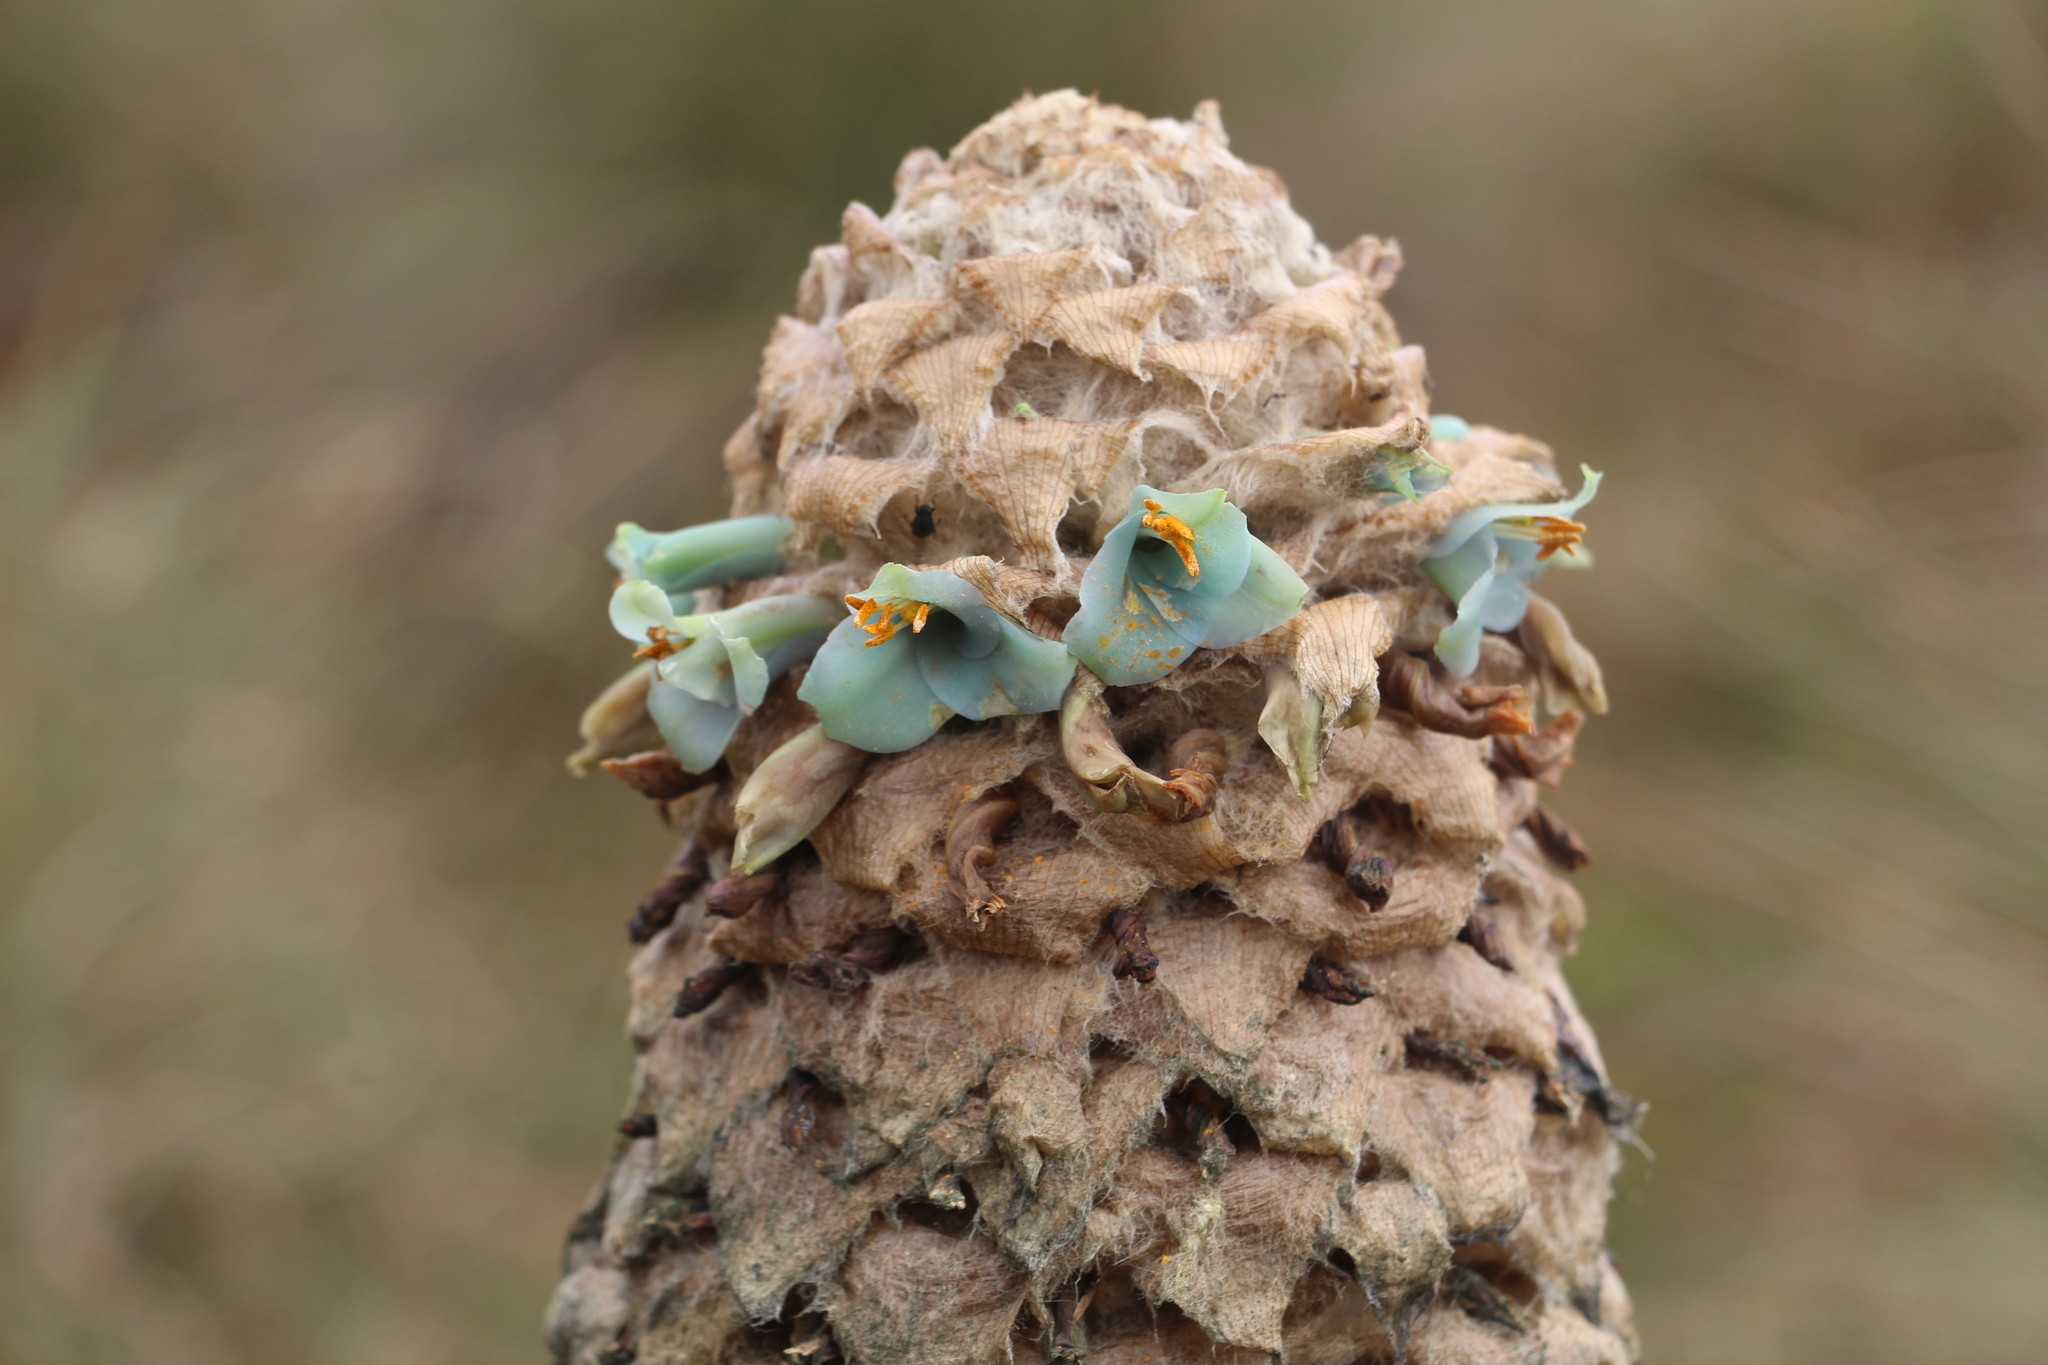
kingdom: Plantae
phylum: Tracheophyta
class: Liliopsida
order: Poales
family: Bromeliaceae
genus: Puya
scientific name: Puya trianae
